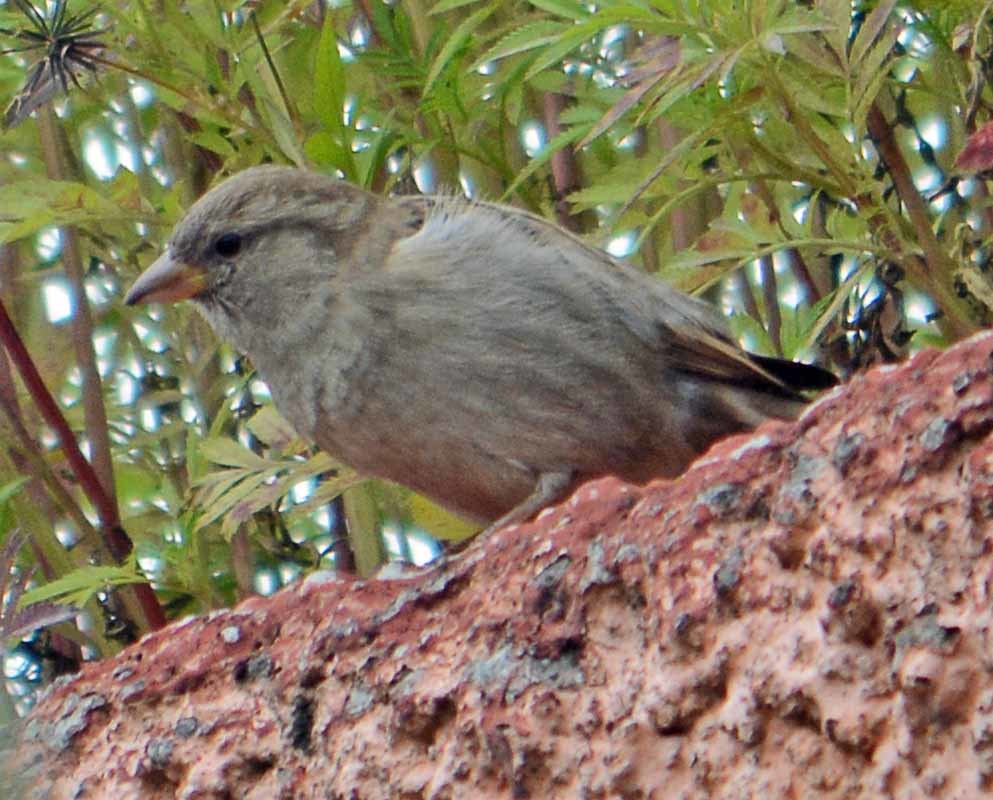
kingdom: Animalia
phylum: Chordata
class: Aves
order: Passeriformes
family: Passeridae
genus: Passer
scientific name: Passer domesticus
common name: House sparrow
